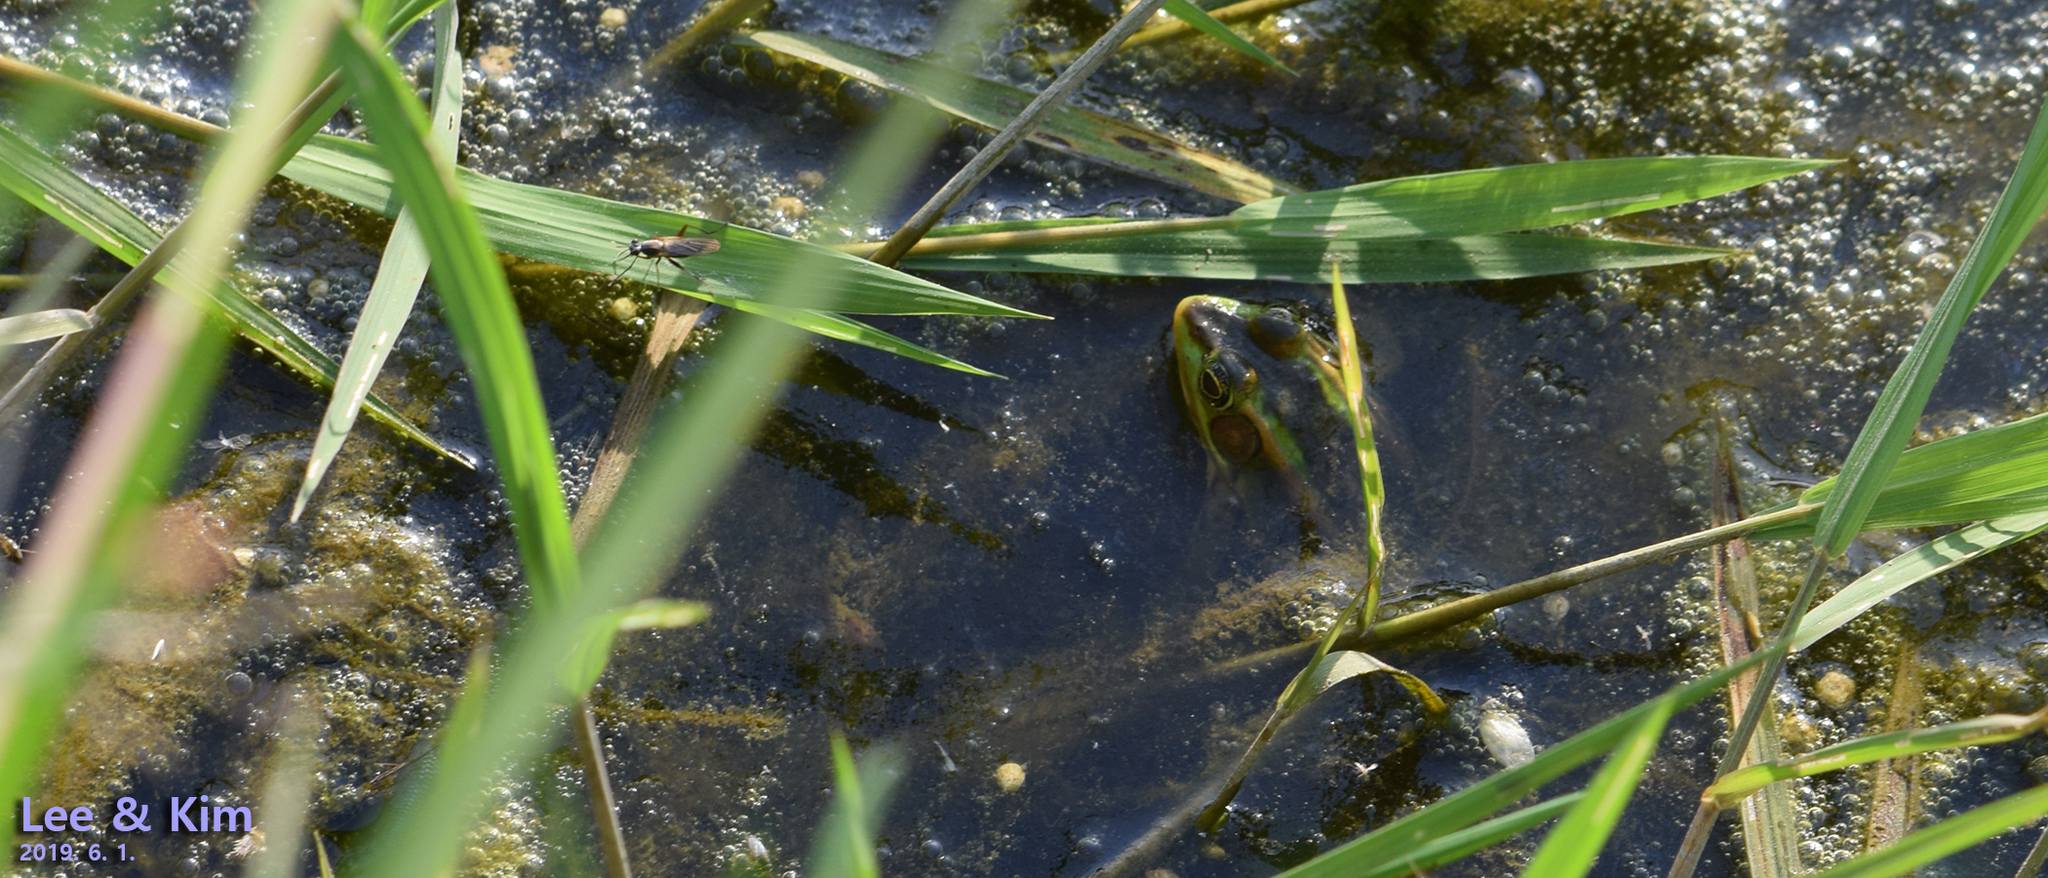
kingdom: Animalia
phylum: Chordata
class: Amphibia
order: Anura
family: Ranidae
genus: Pelophylax
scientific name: Pelophylax chosenicus
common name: Gold-spotted pond frog
